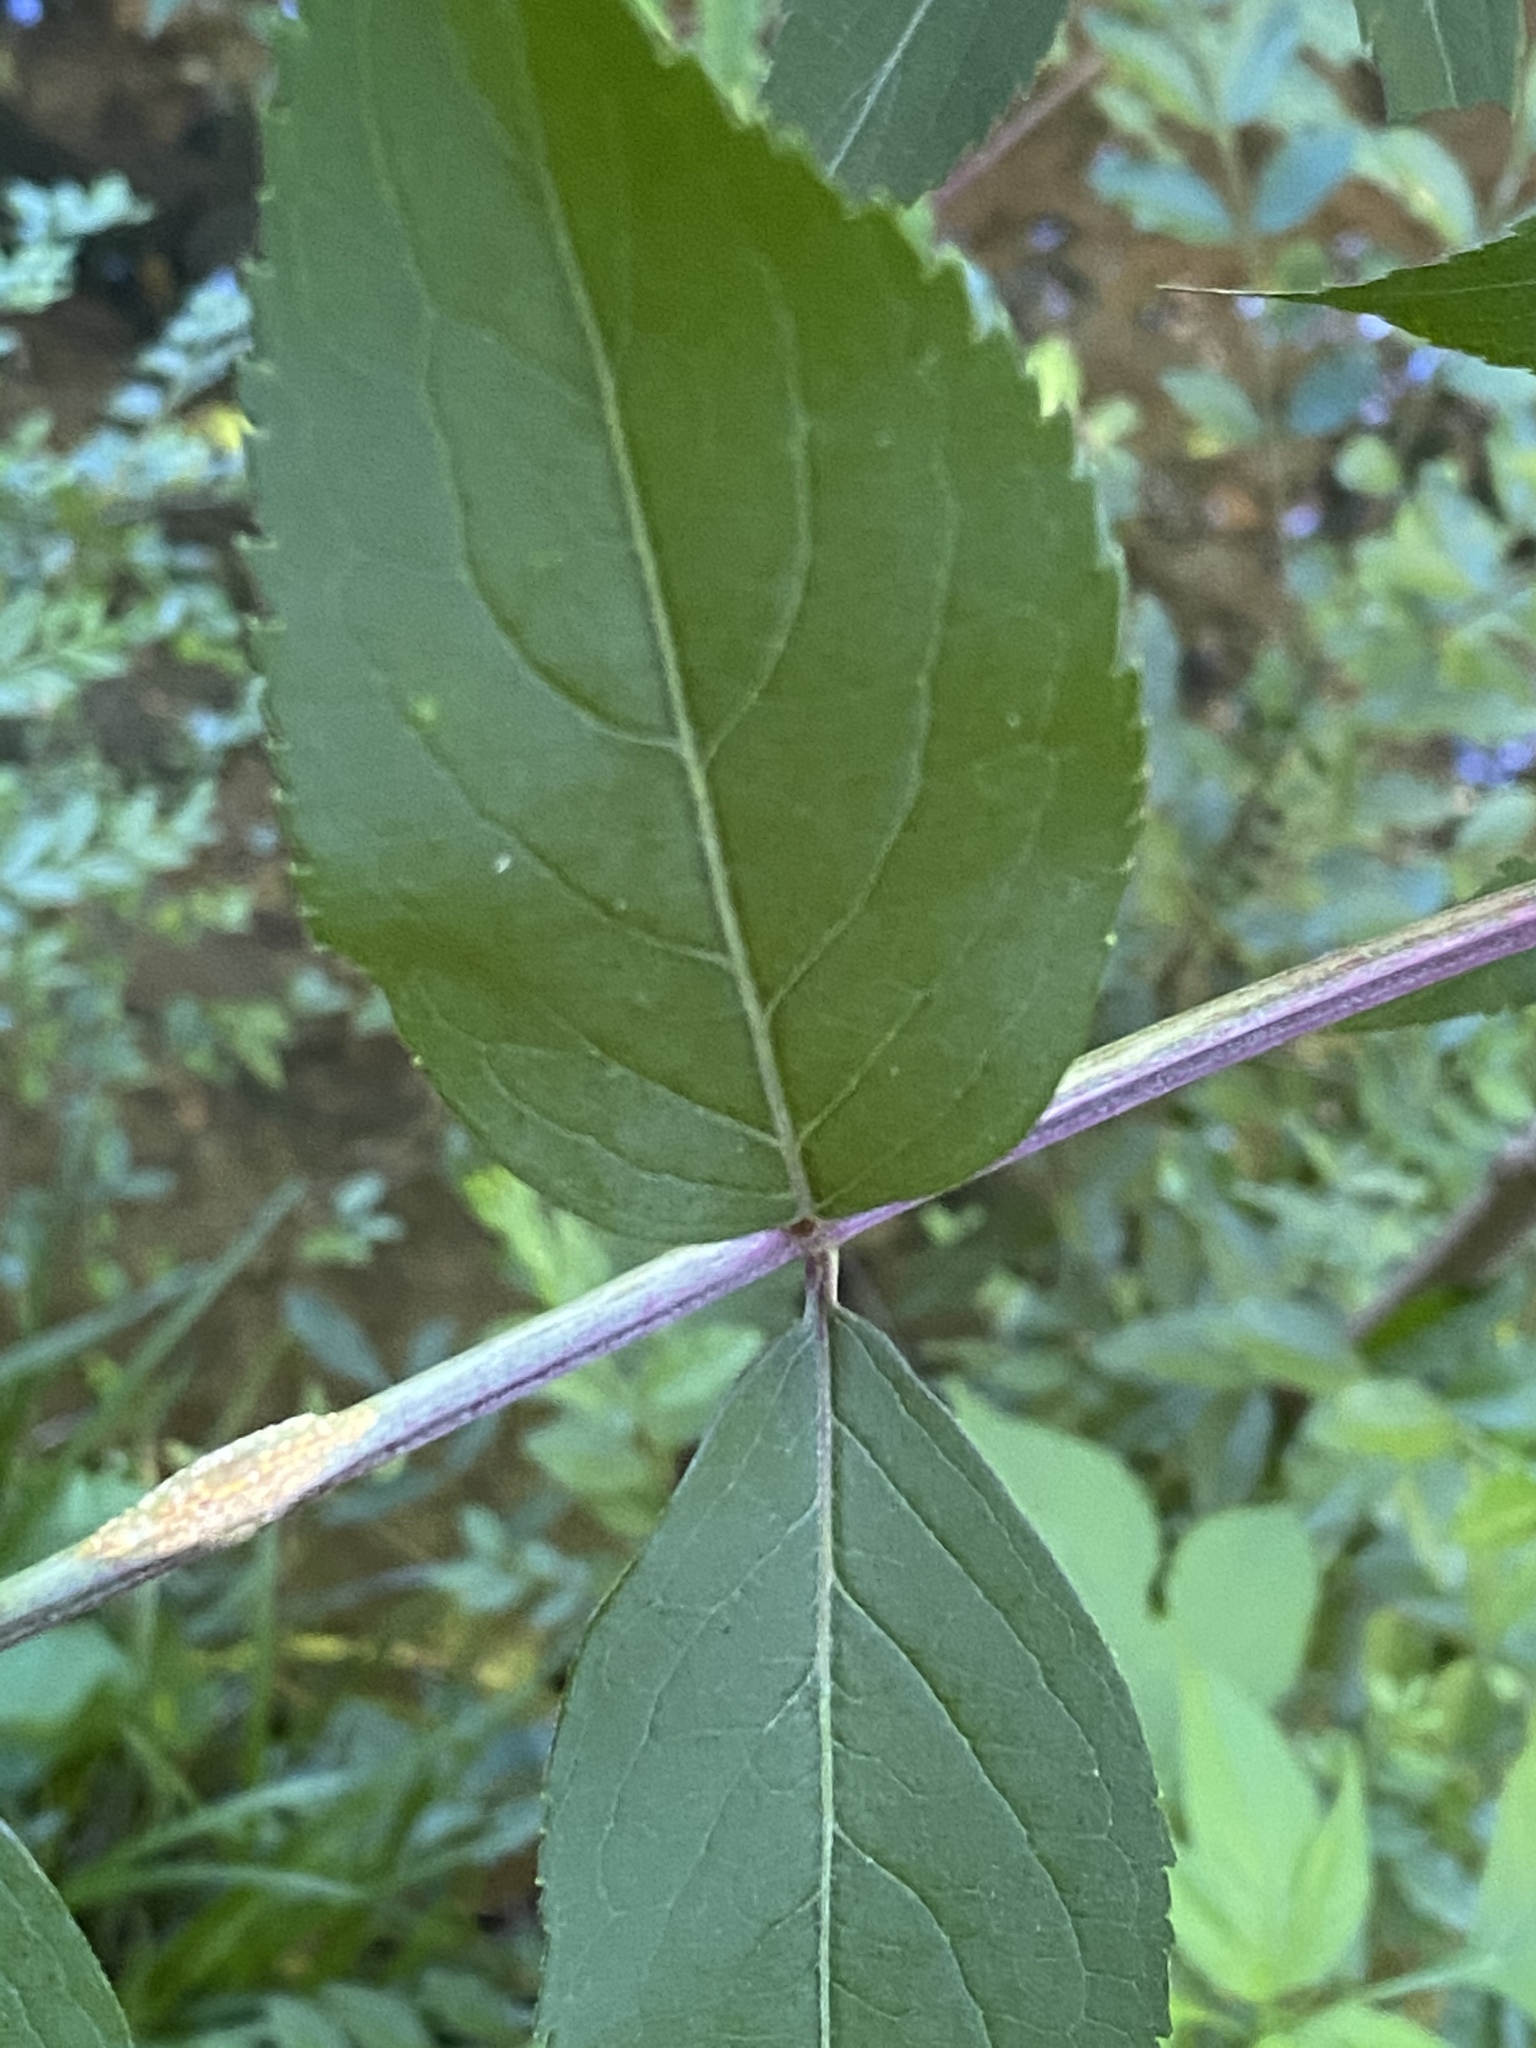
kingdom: Fungi
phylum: Basidiomycota
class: Pucciniomycetes
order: Pucciniales
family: Pucciniaceae
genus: Puccinia
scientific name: Puccinia
